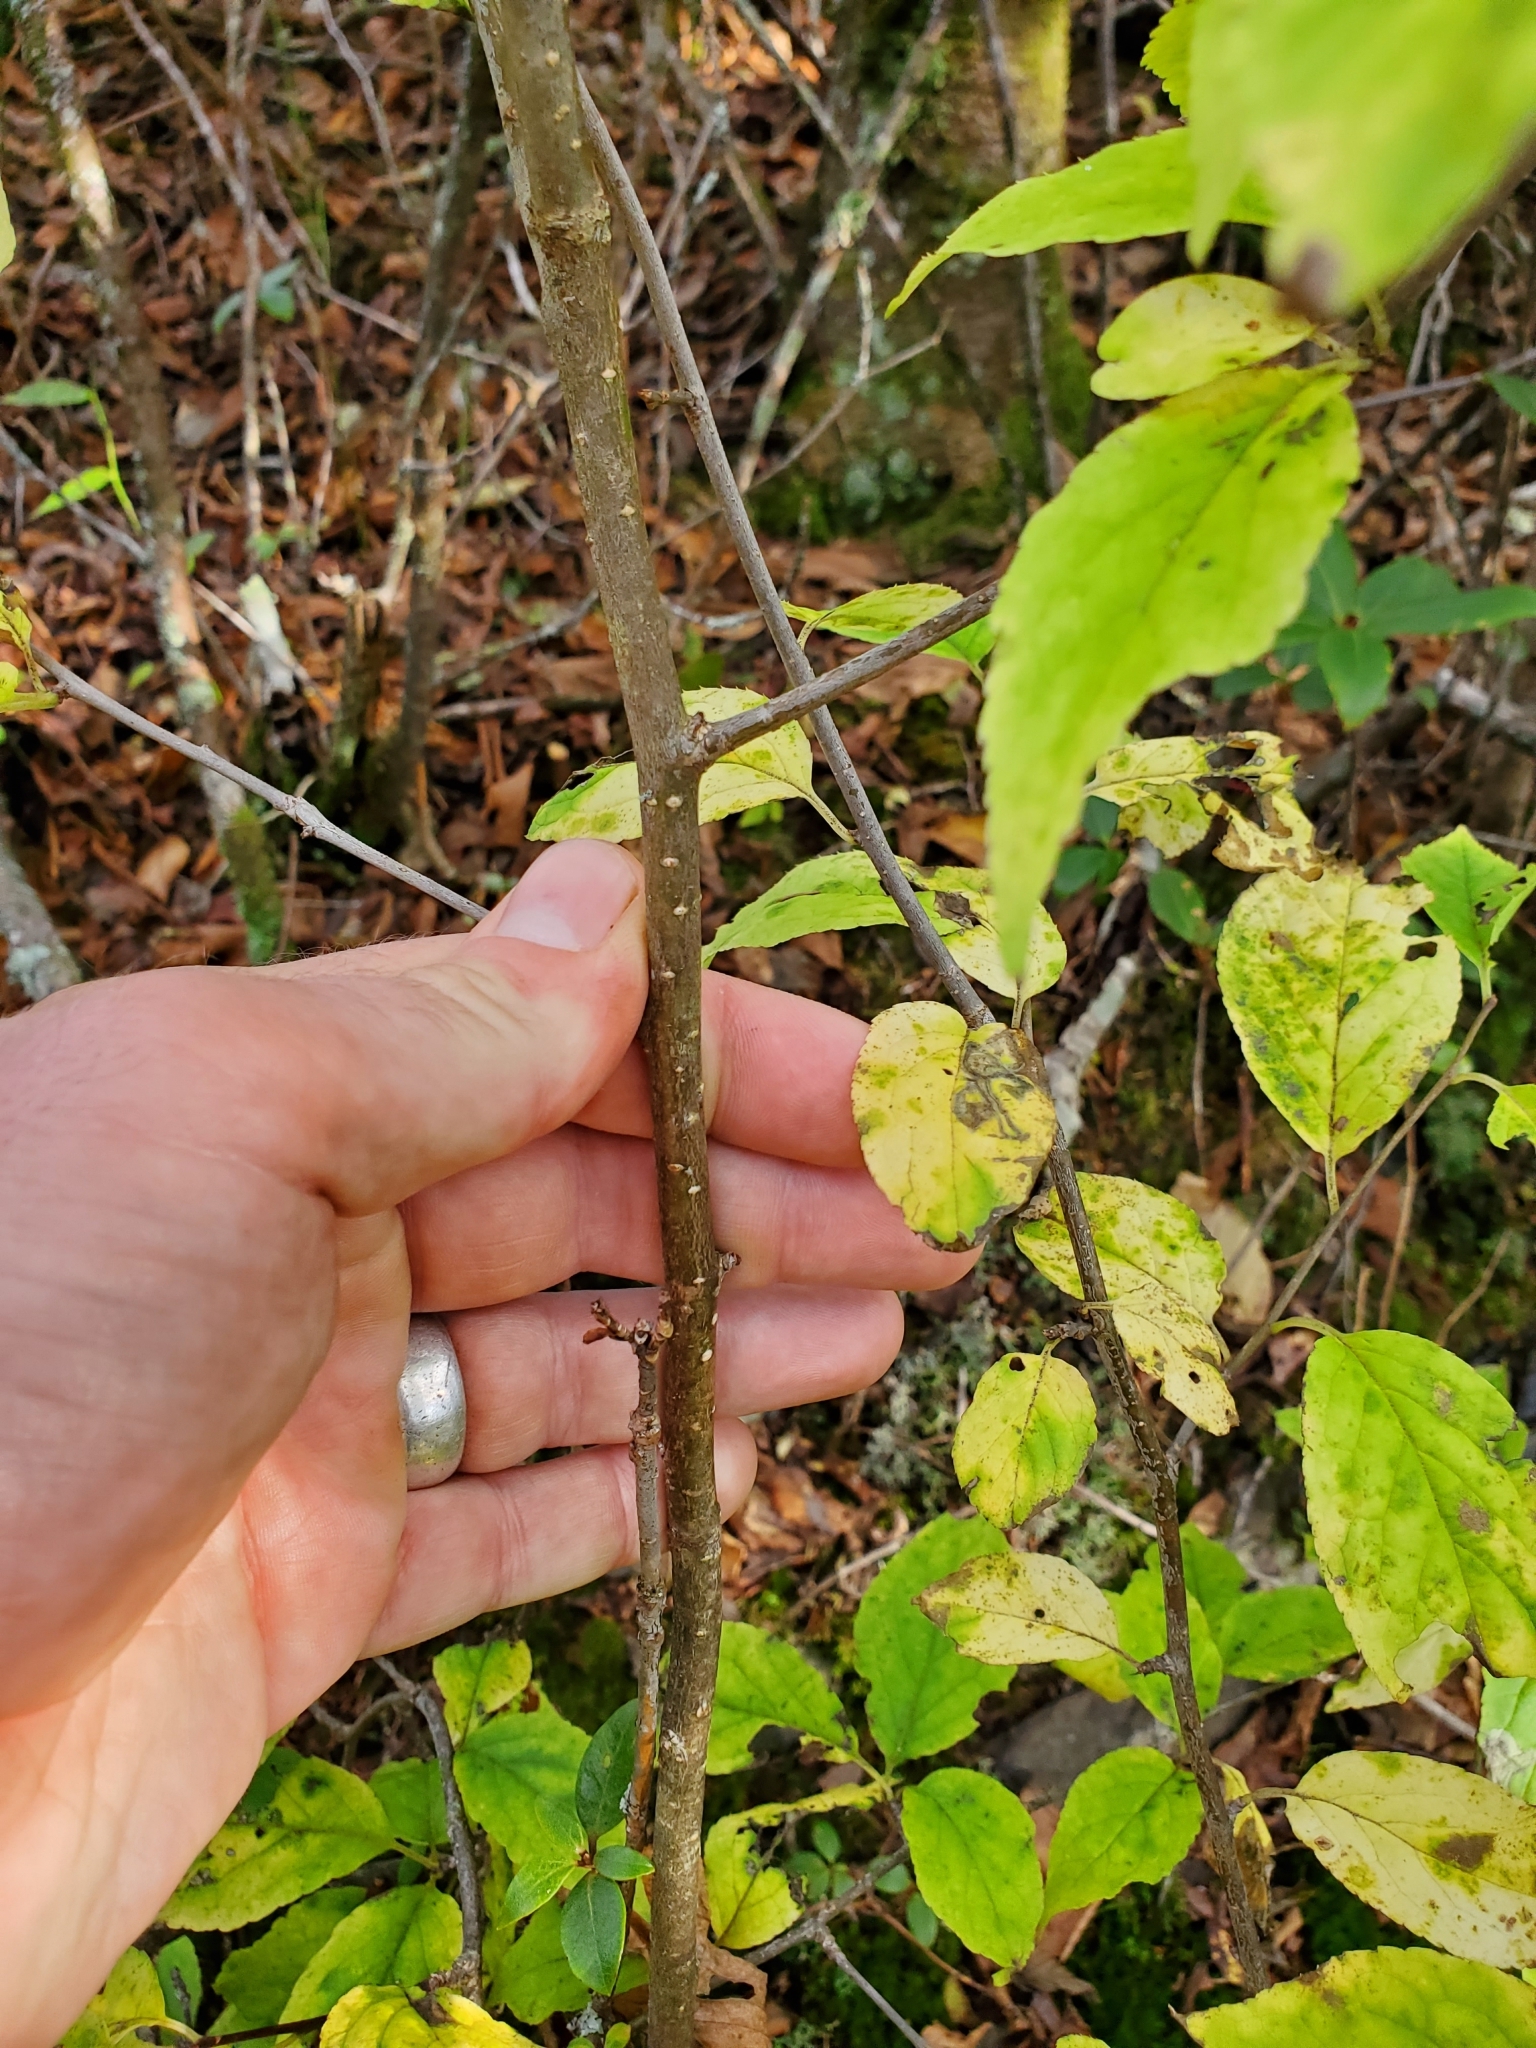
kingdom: Plantae
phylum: Tracheophyta
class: Magnoliopsida
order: Aquifoliales
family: Aquifoliaceae
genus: Ilex
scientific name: Ilex montana
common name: Mountain winterberry
